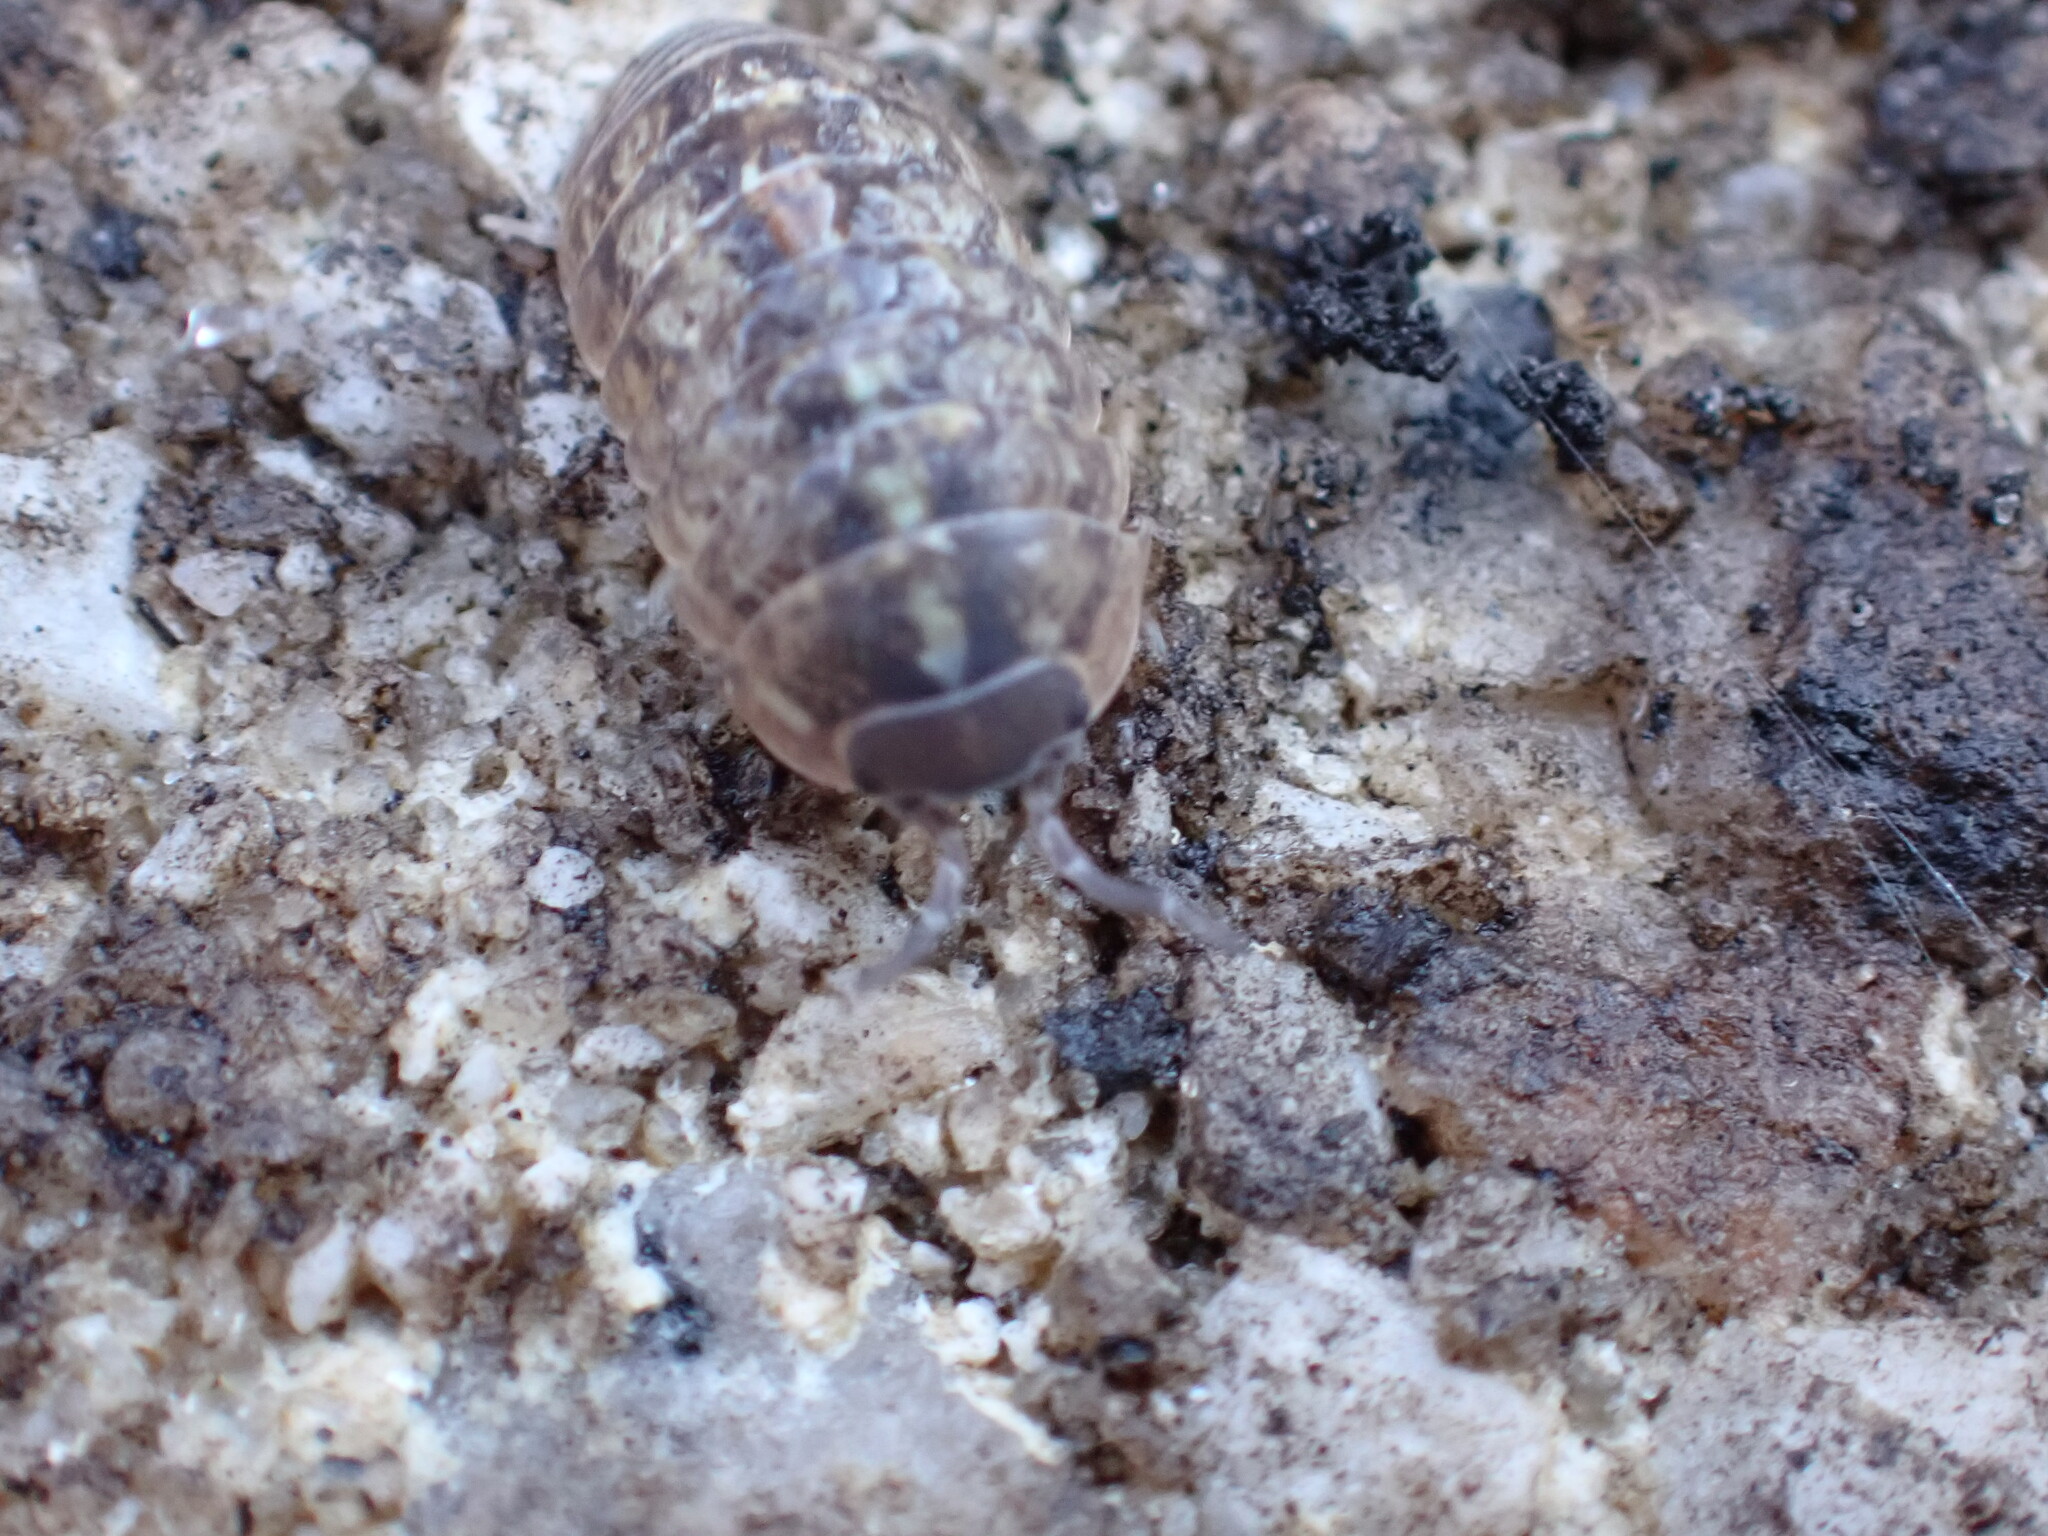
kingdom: Animalia
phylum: Arthropoda
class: Malacostraca
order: Isopoda
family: Armadillidiidae
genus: Armadillidium
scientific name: Armadillidium vulgare
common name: Common pill woodlouse
